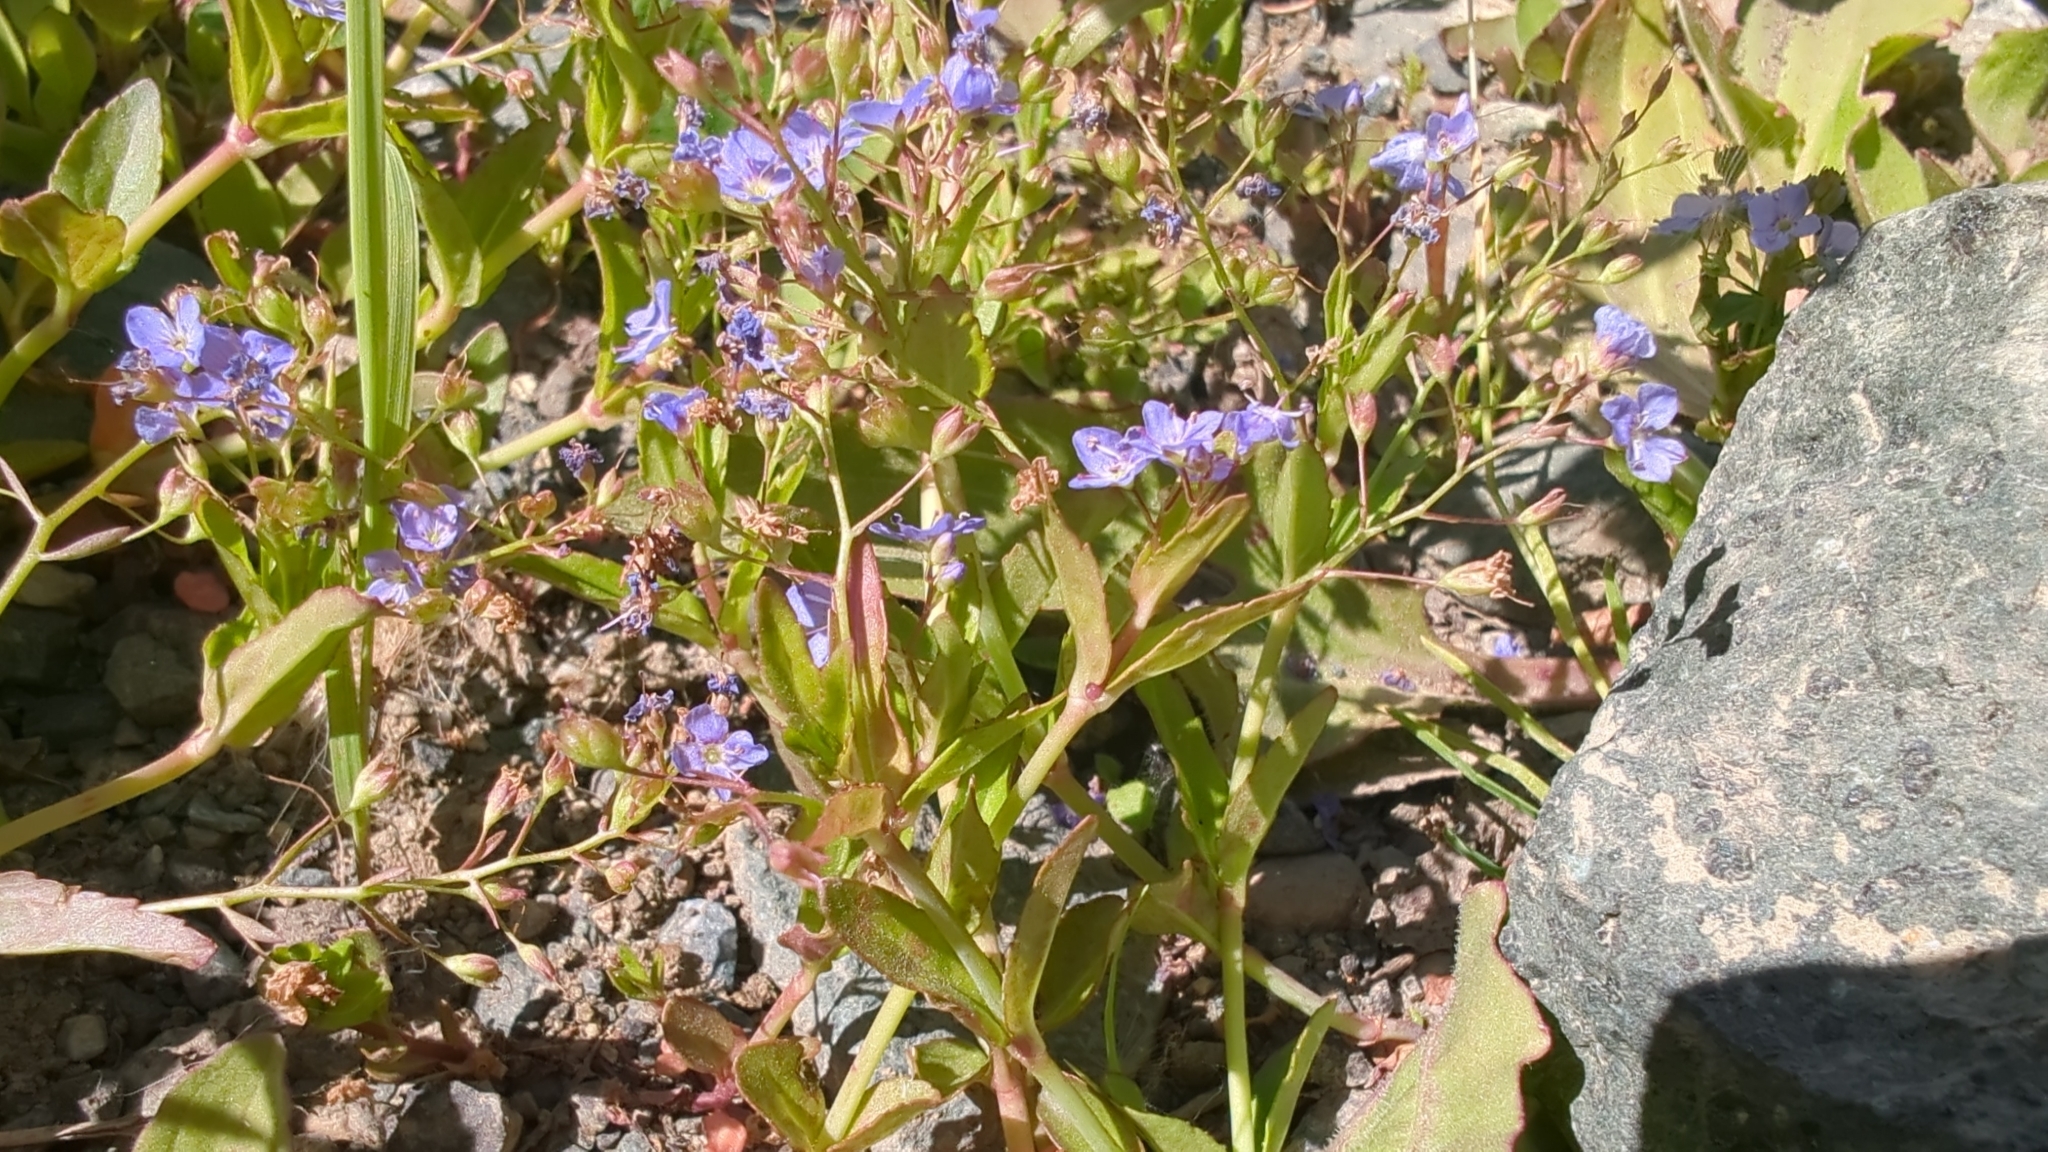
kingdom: Plantae
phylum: Tracheophyta
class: Magnoliopsida
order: Lamiales
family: Plantaginaceae
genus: Veronica
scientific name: Veronica americana
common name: American brooklime
